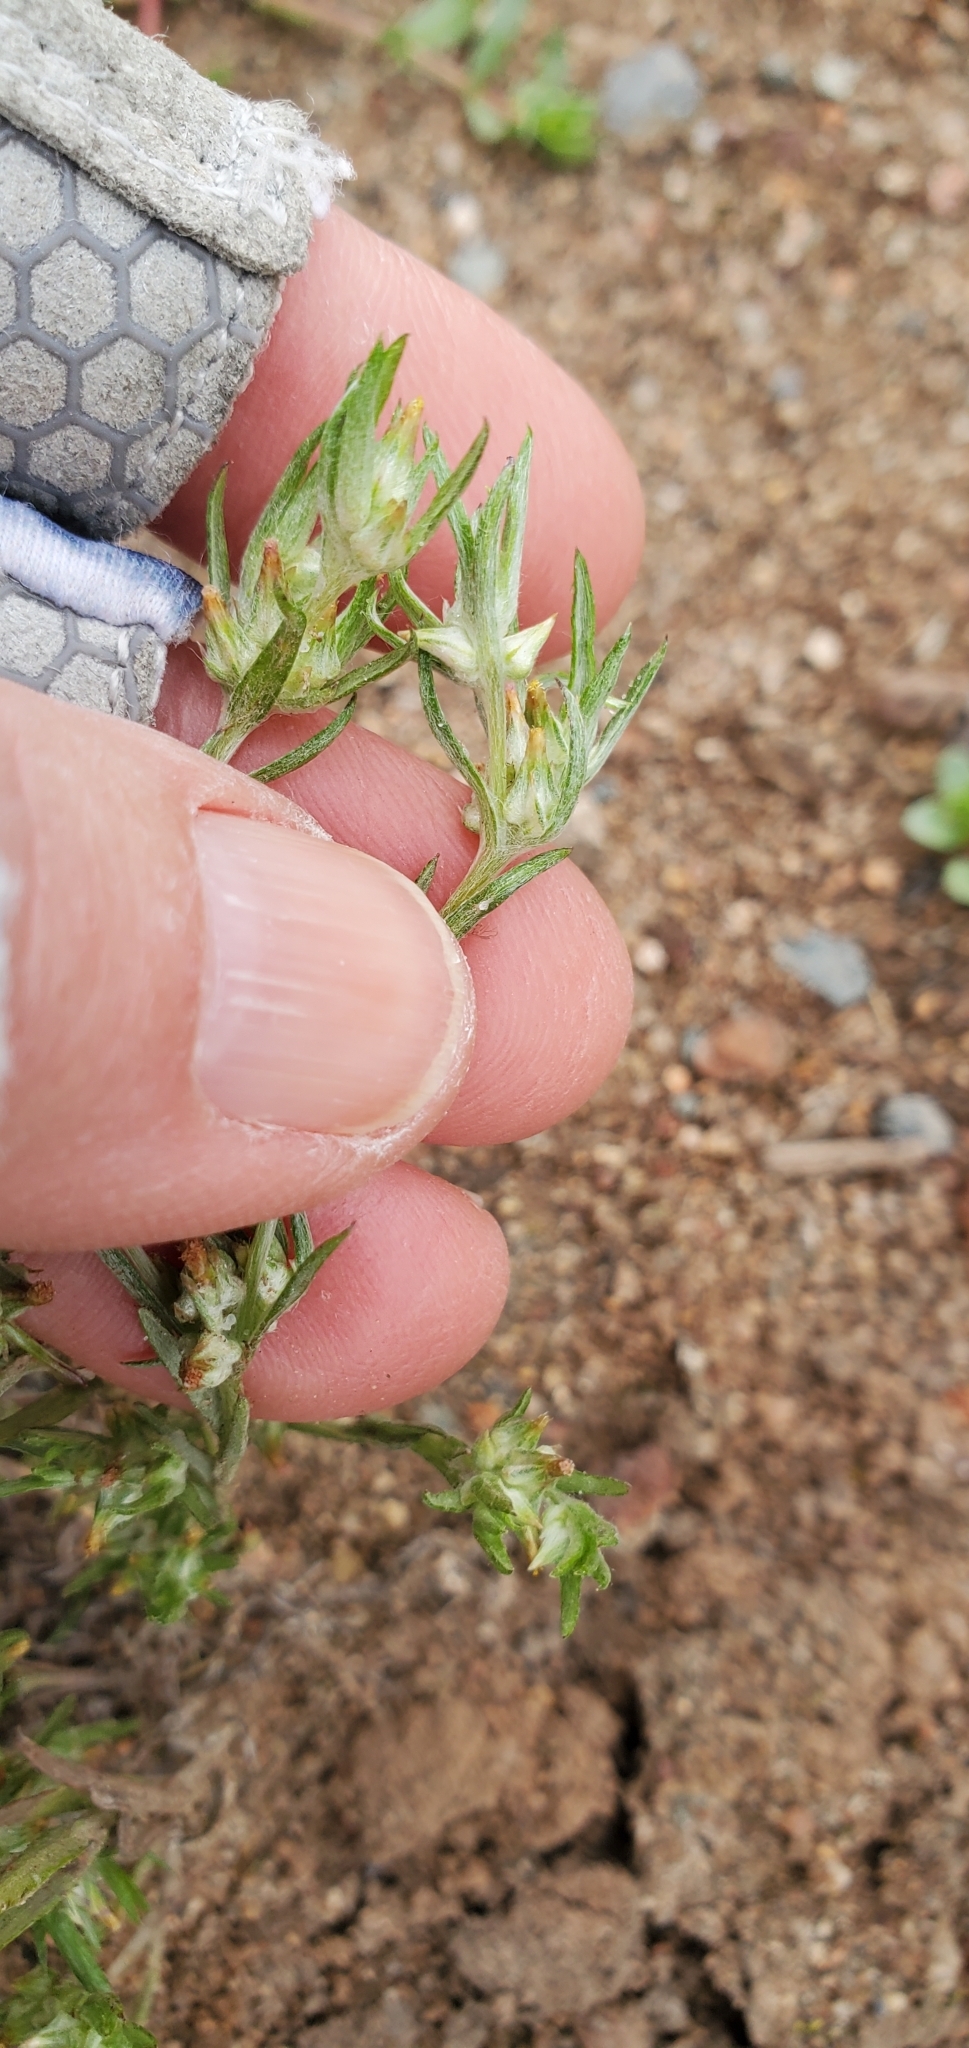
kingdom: Plantae
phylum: Tracheophyta
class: Magnoliopsida
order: Asterales
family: Asteraceae
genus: Logfia
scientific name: Logfia gallica
